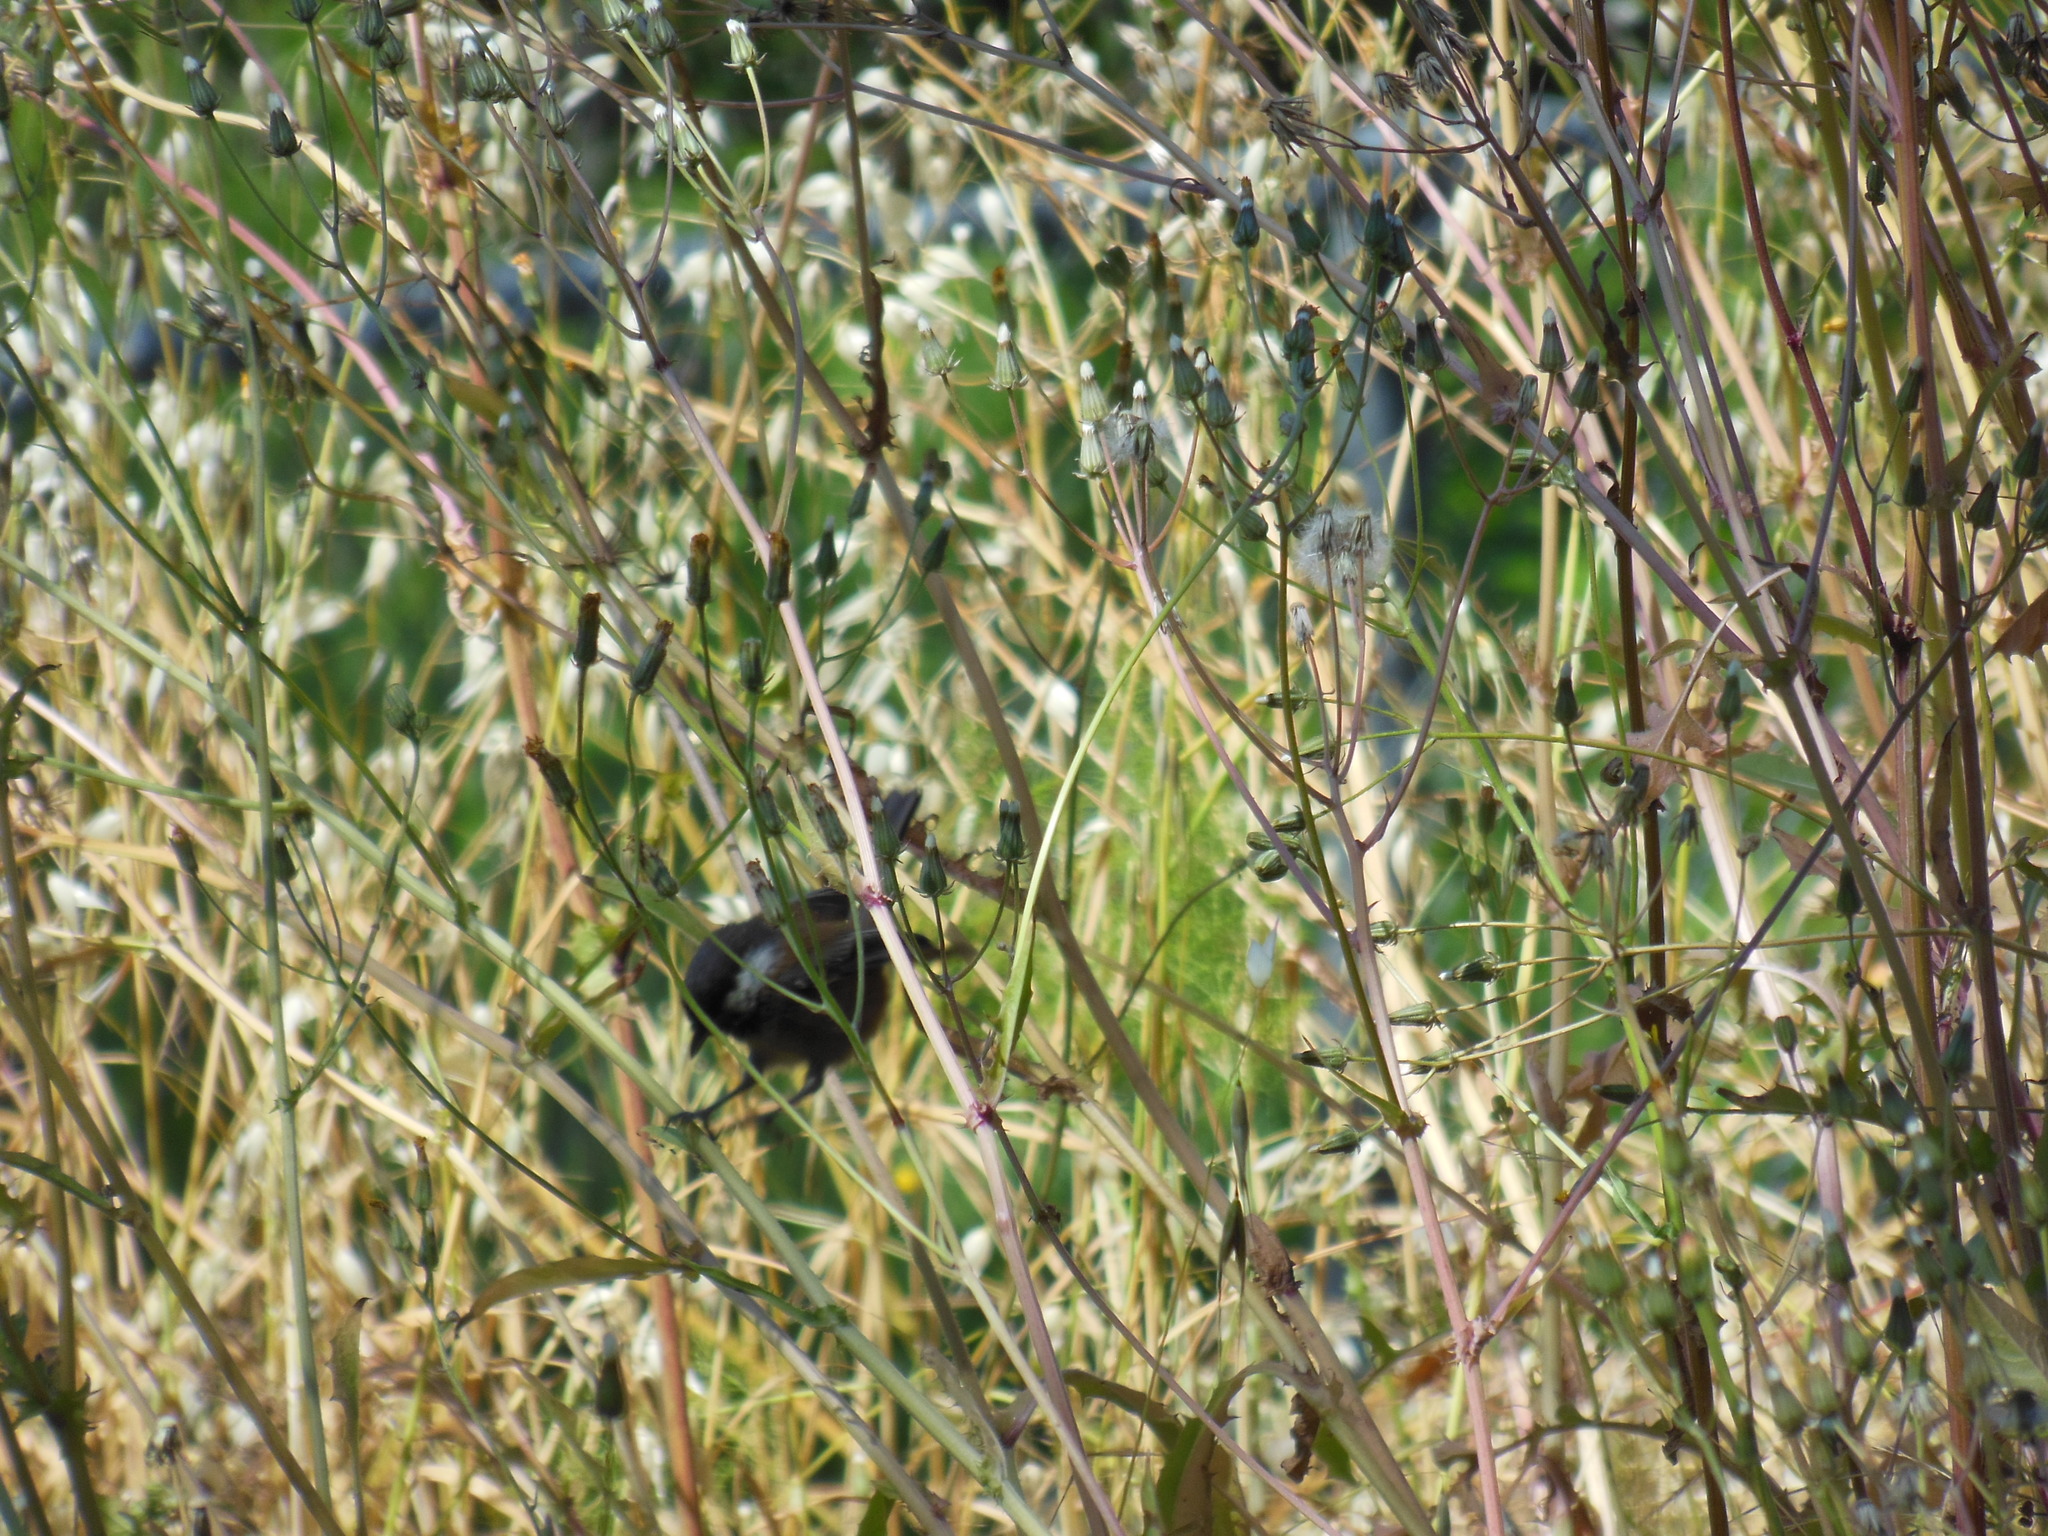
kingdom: Animalia
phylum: Chordata
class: Aves
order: Passeriformes
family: Paridae
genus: Poecile
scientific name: Poecile rufescens
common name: Chestnut-backed chickadee
